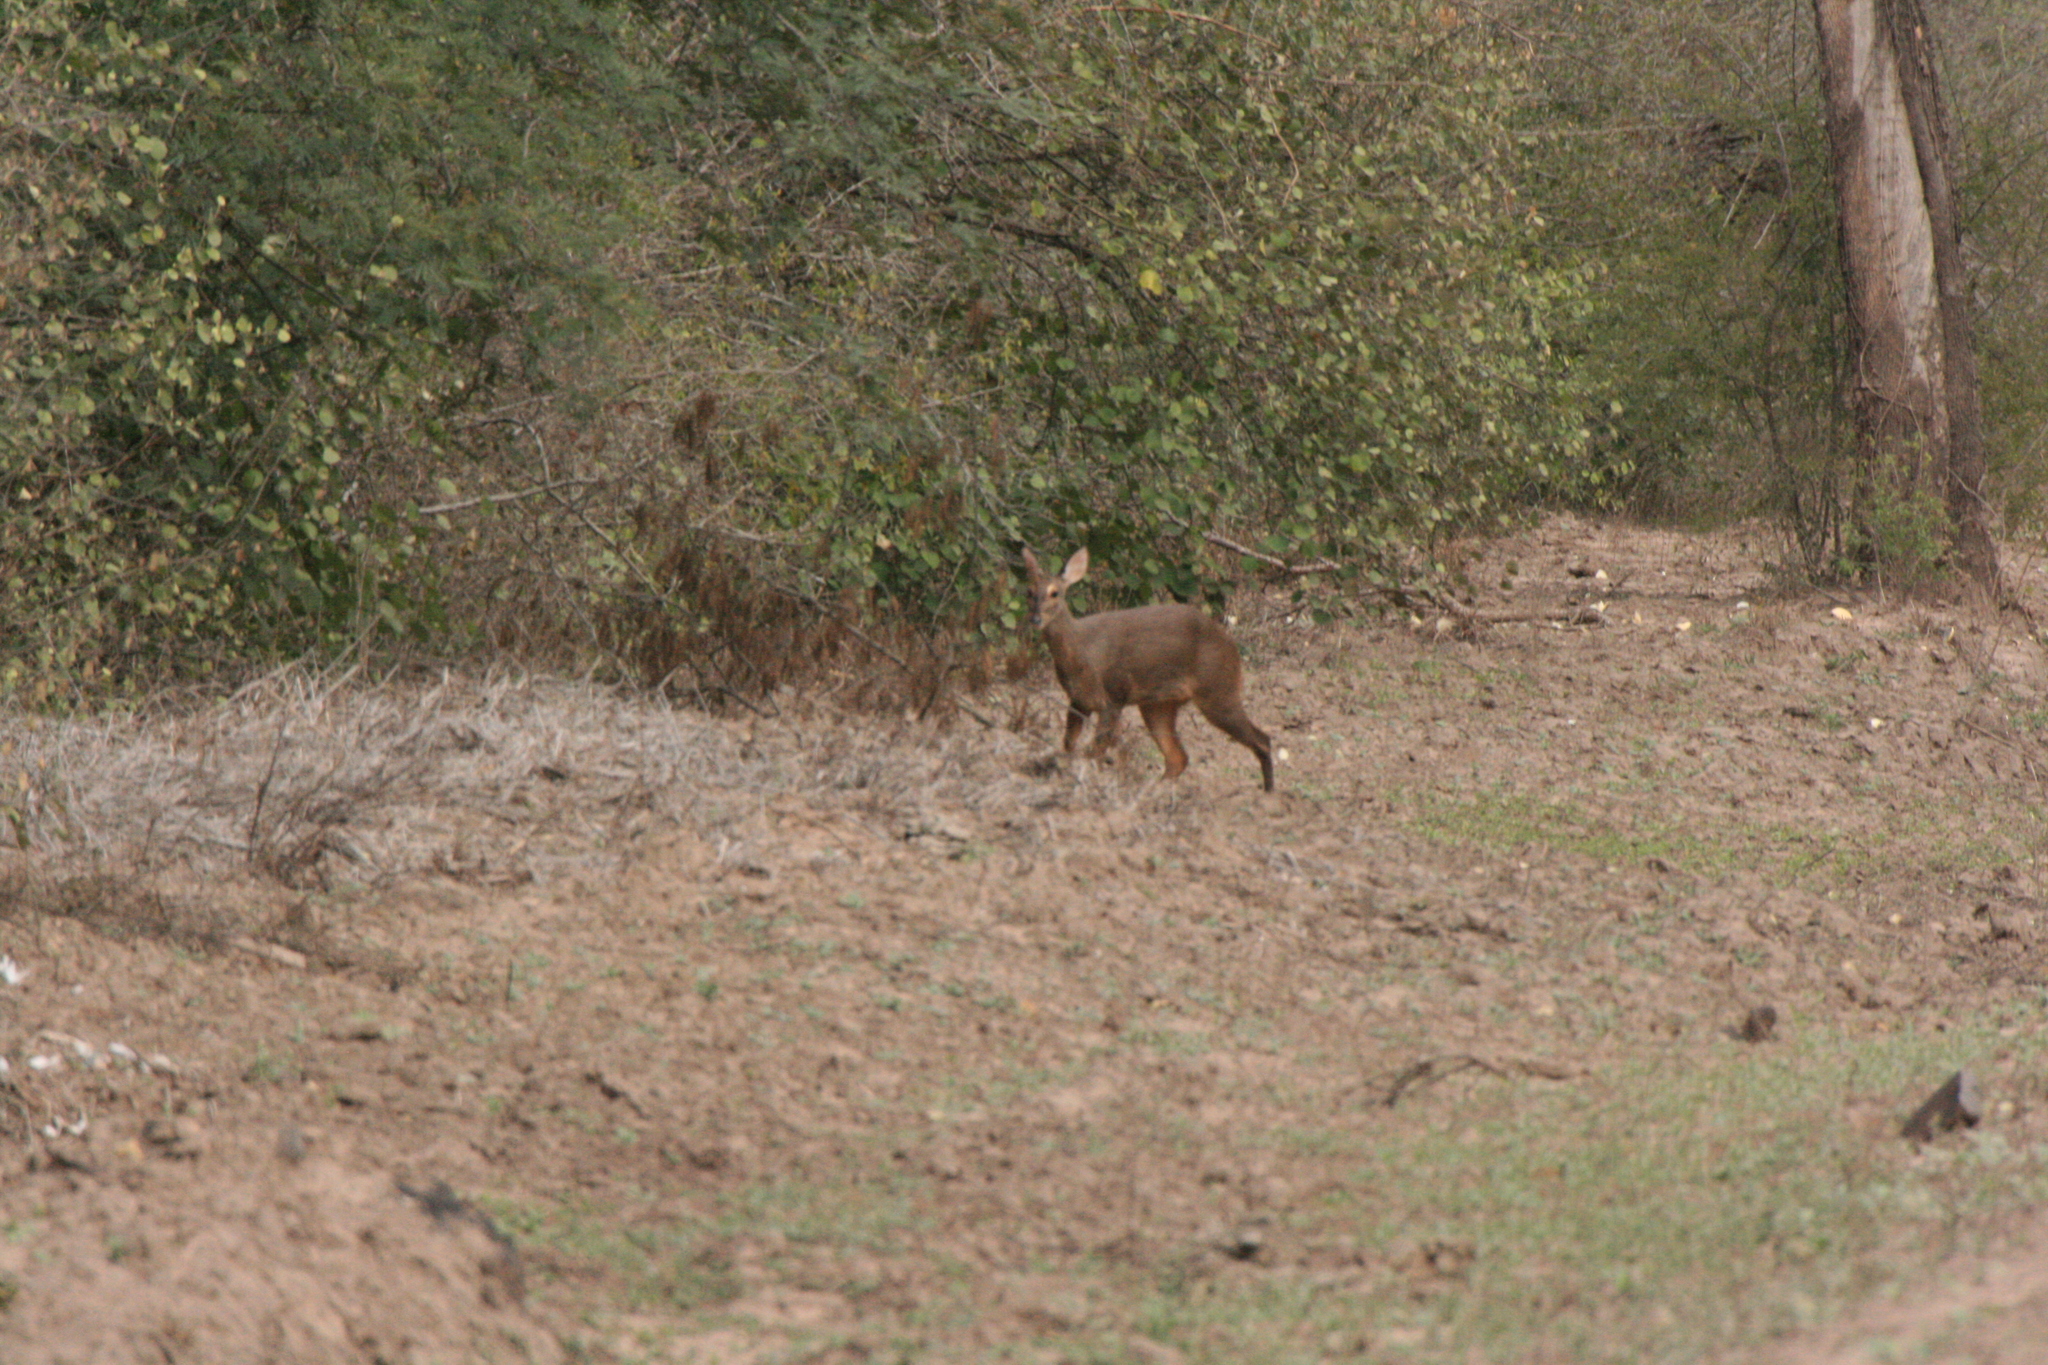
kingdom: Animalia
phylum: Chordata
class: Mammalia
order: Artiodactyla
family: Cervidae
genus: Mazama
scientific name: Mazama gouazoubira
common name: Gray brocket
